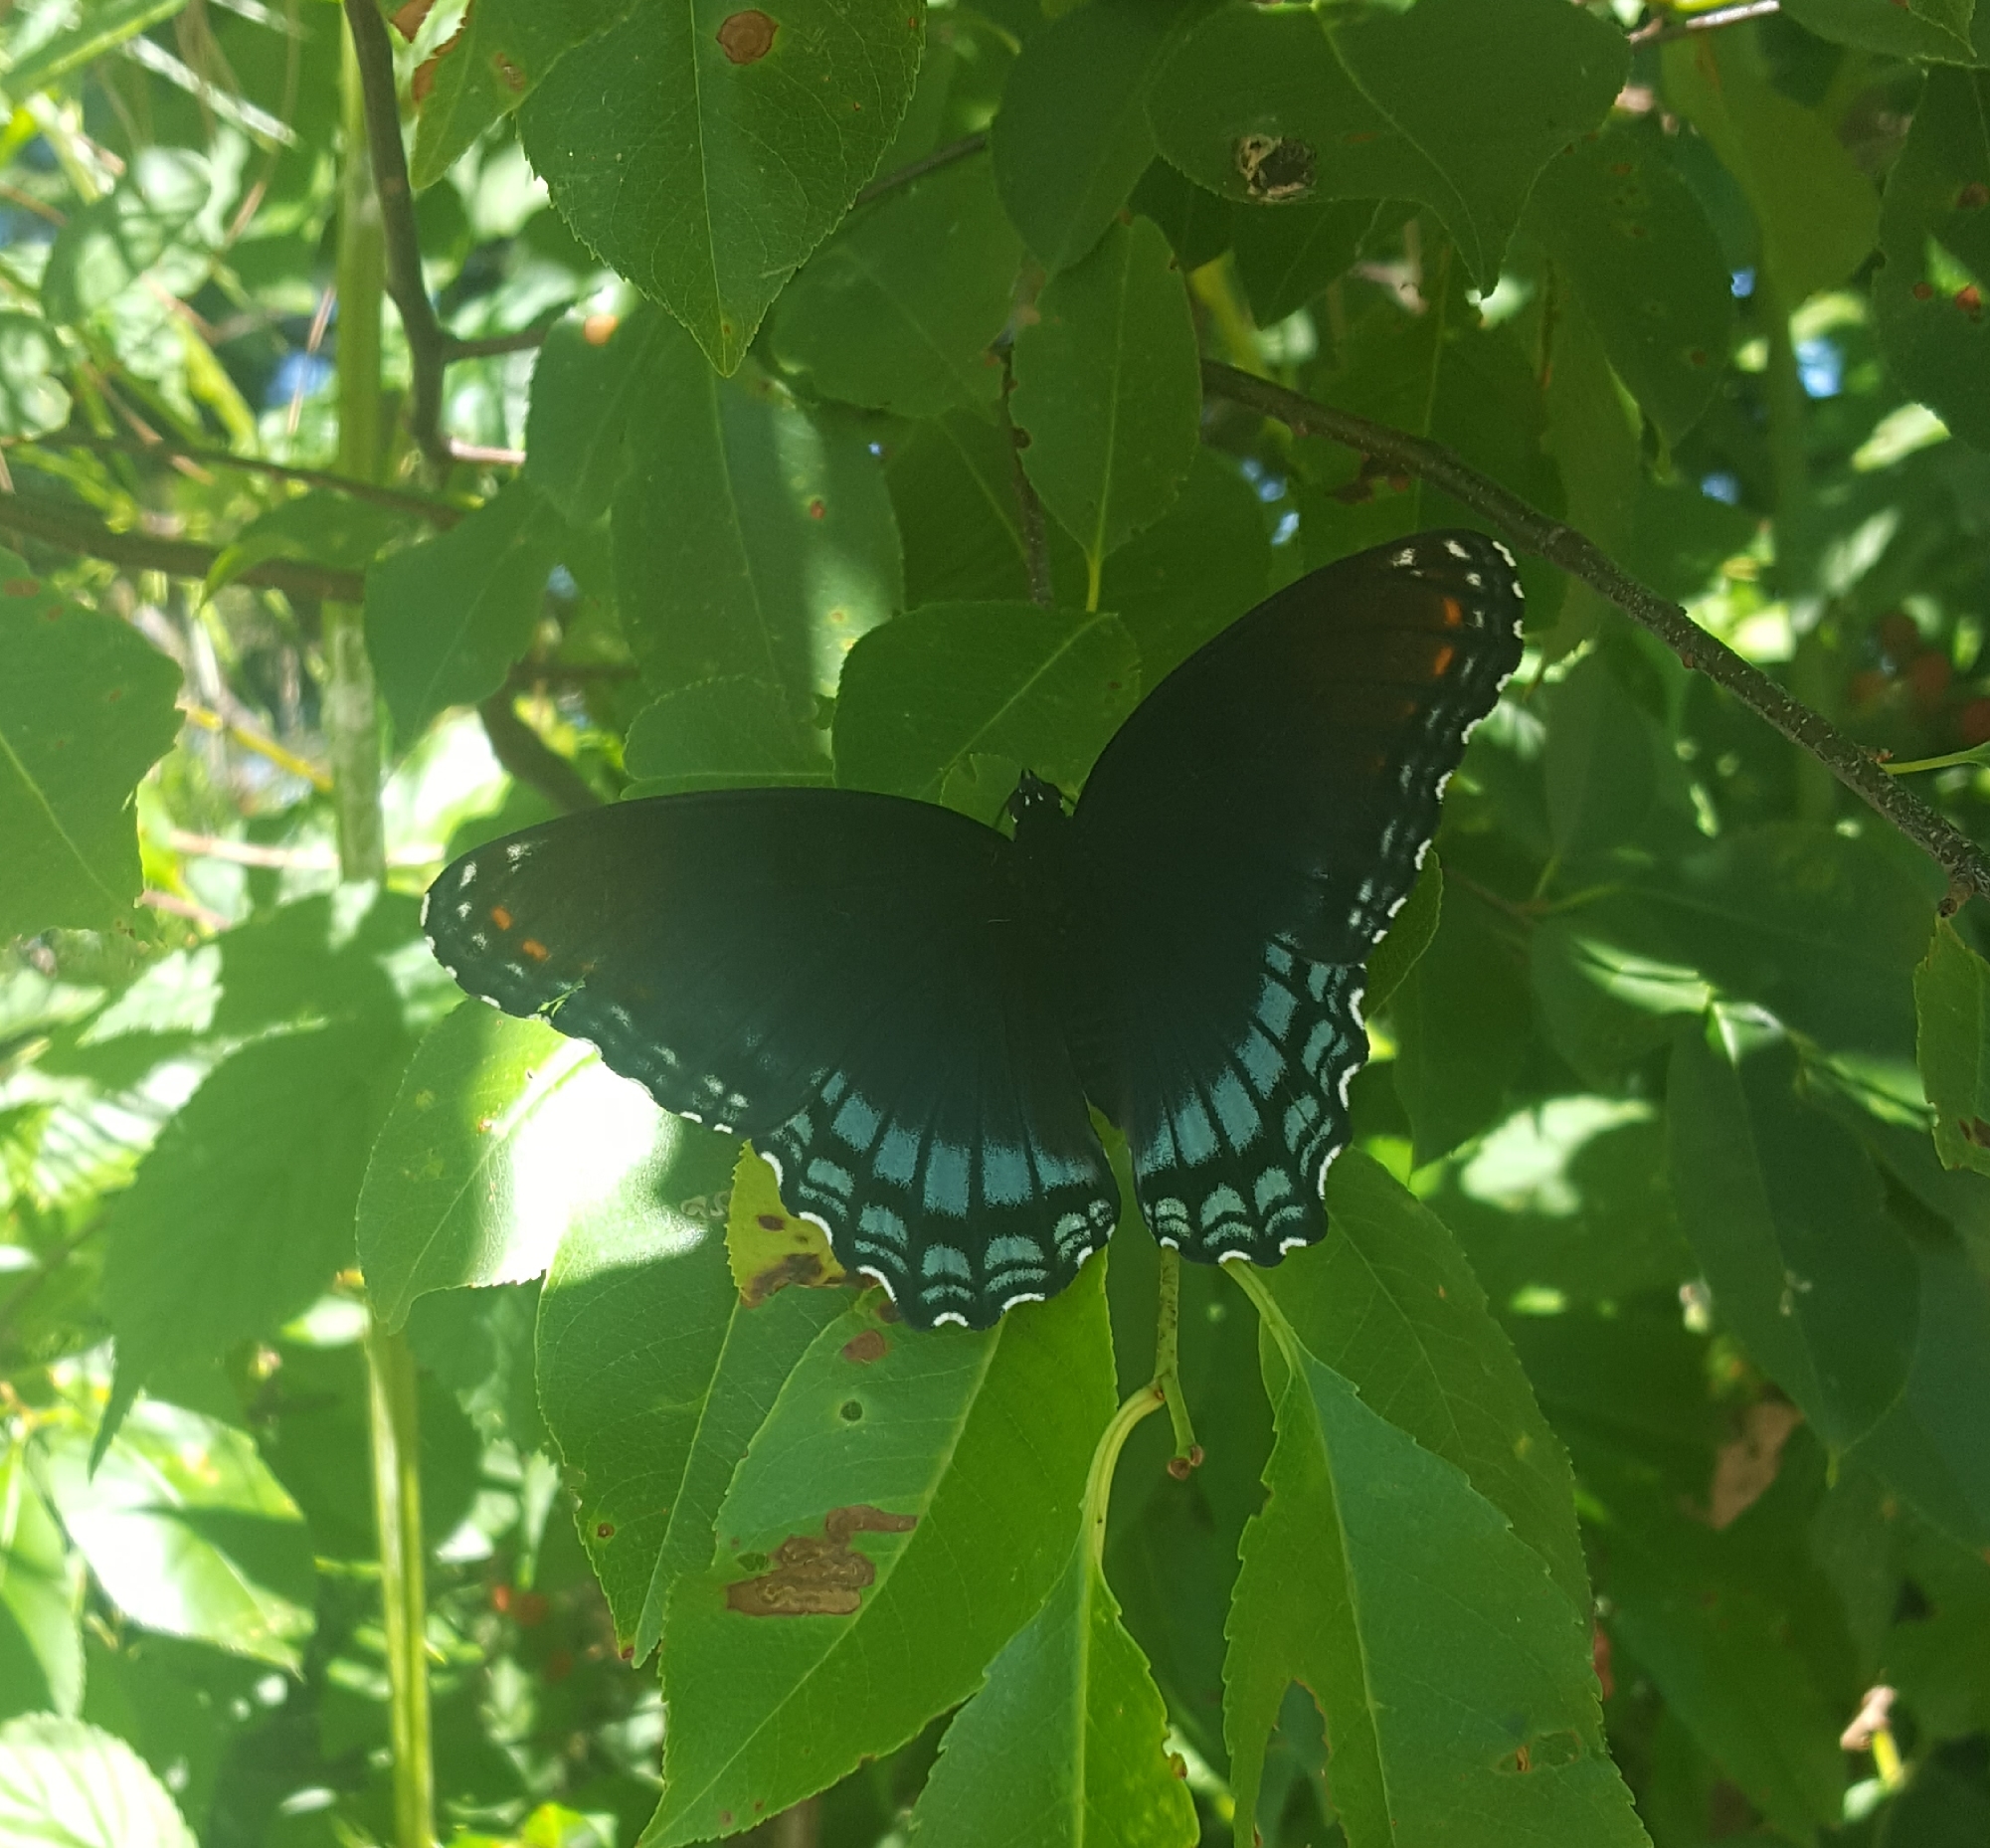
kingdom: Animalia
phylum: Arthropoda
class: Insecta
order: Lepidoptera
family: Nymphalidae
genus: Limenitis
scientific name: Limenitis astyanax
